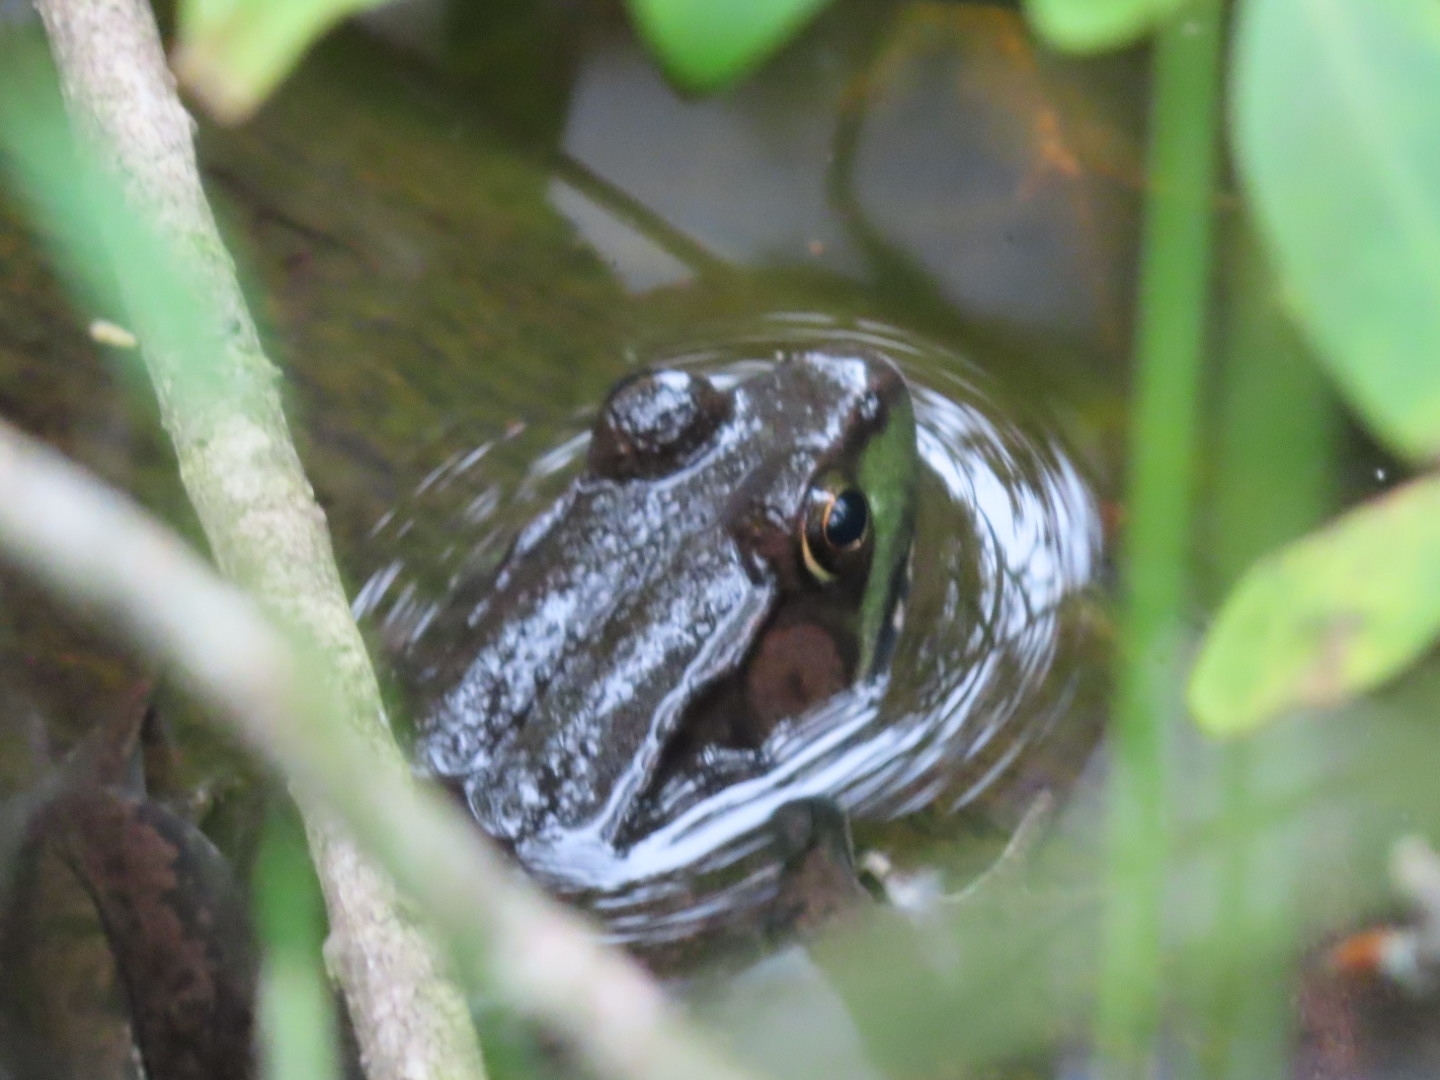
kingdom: Animalia
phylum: Chordata
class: Amphibia
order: Anura
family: Ranidae
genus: Lithobates
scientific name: Lithobates clamitans
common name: Green frog
